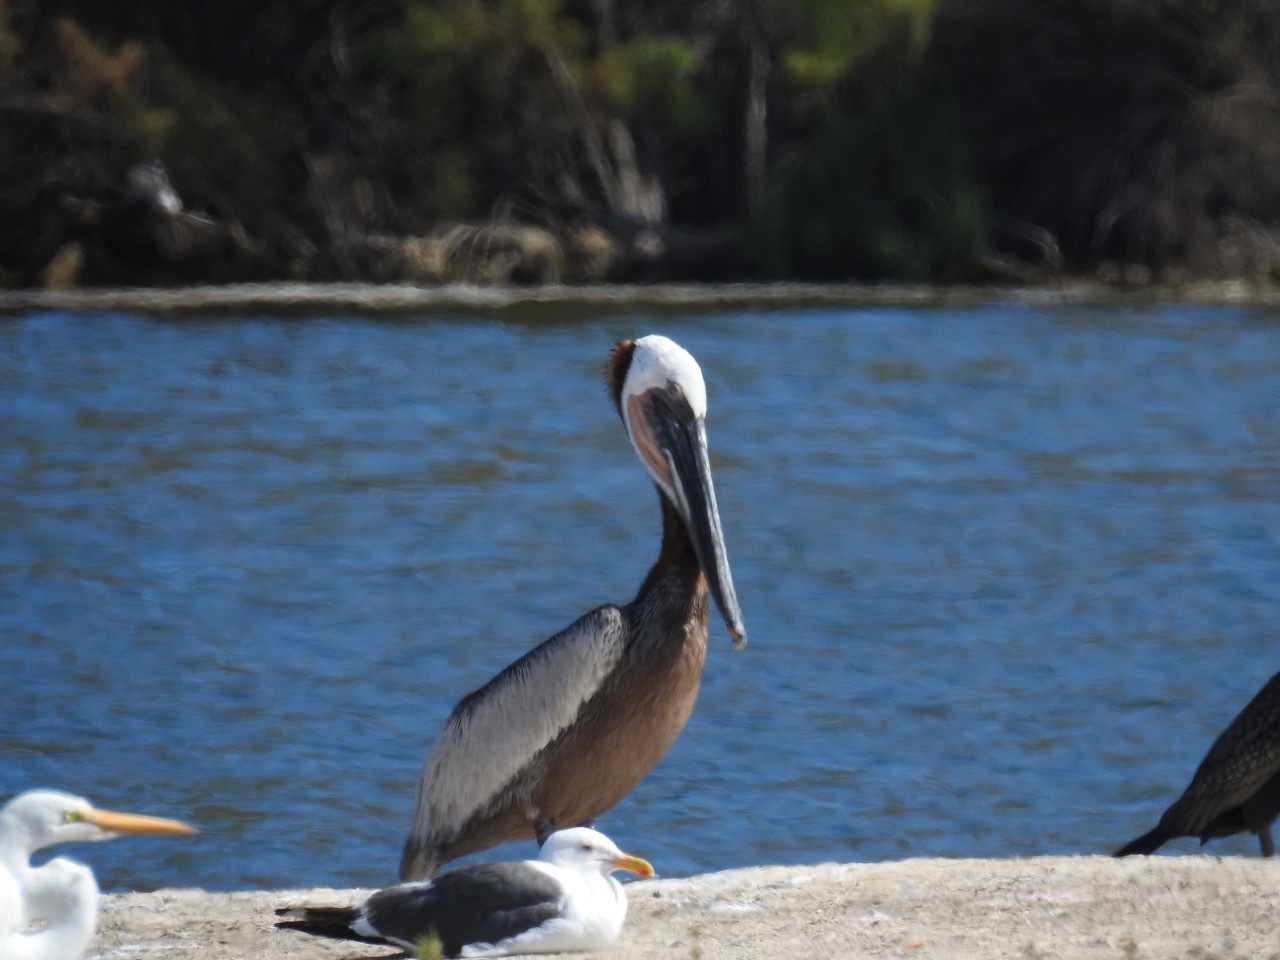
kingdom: Animalia
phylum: Chordata
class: Aves
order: Pelecaniformes
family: Pelecanidae
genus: Pelecanus
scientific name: Pelecanus occidentalis
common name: Brown pelican
